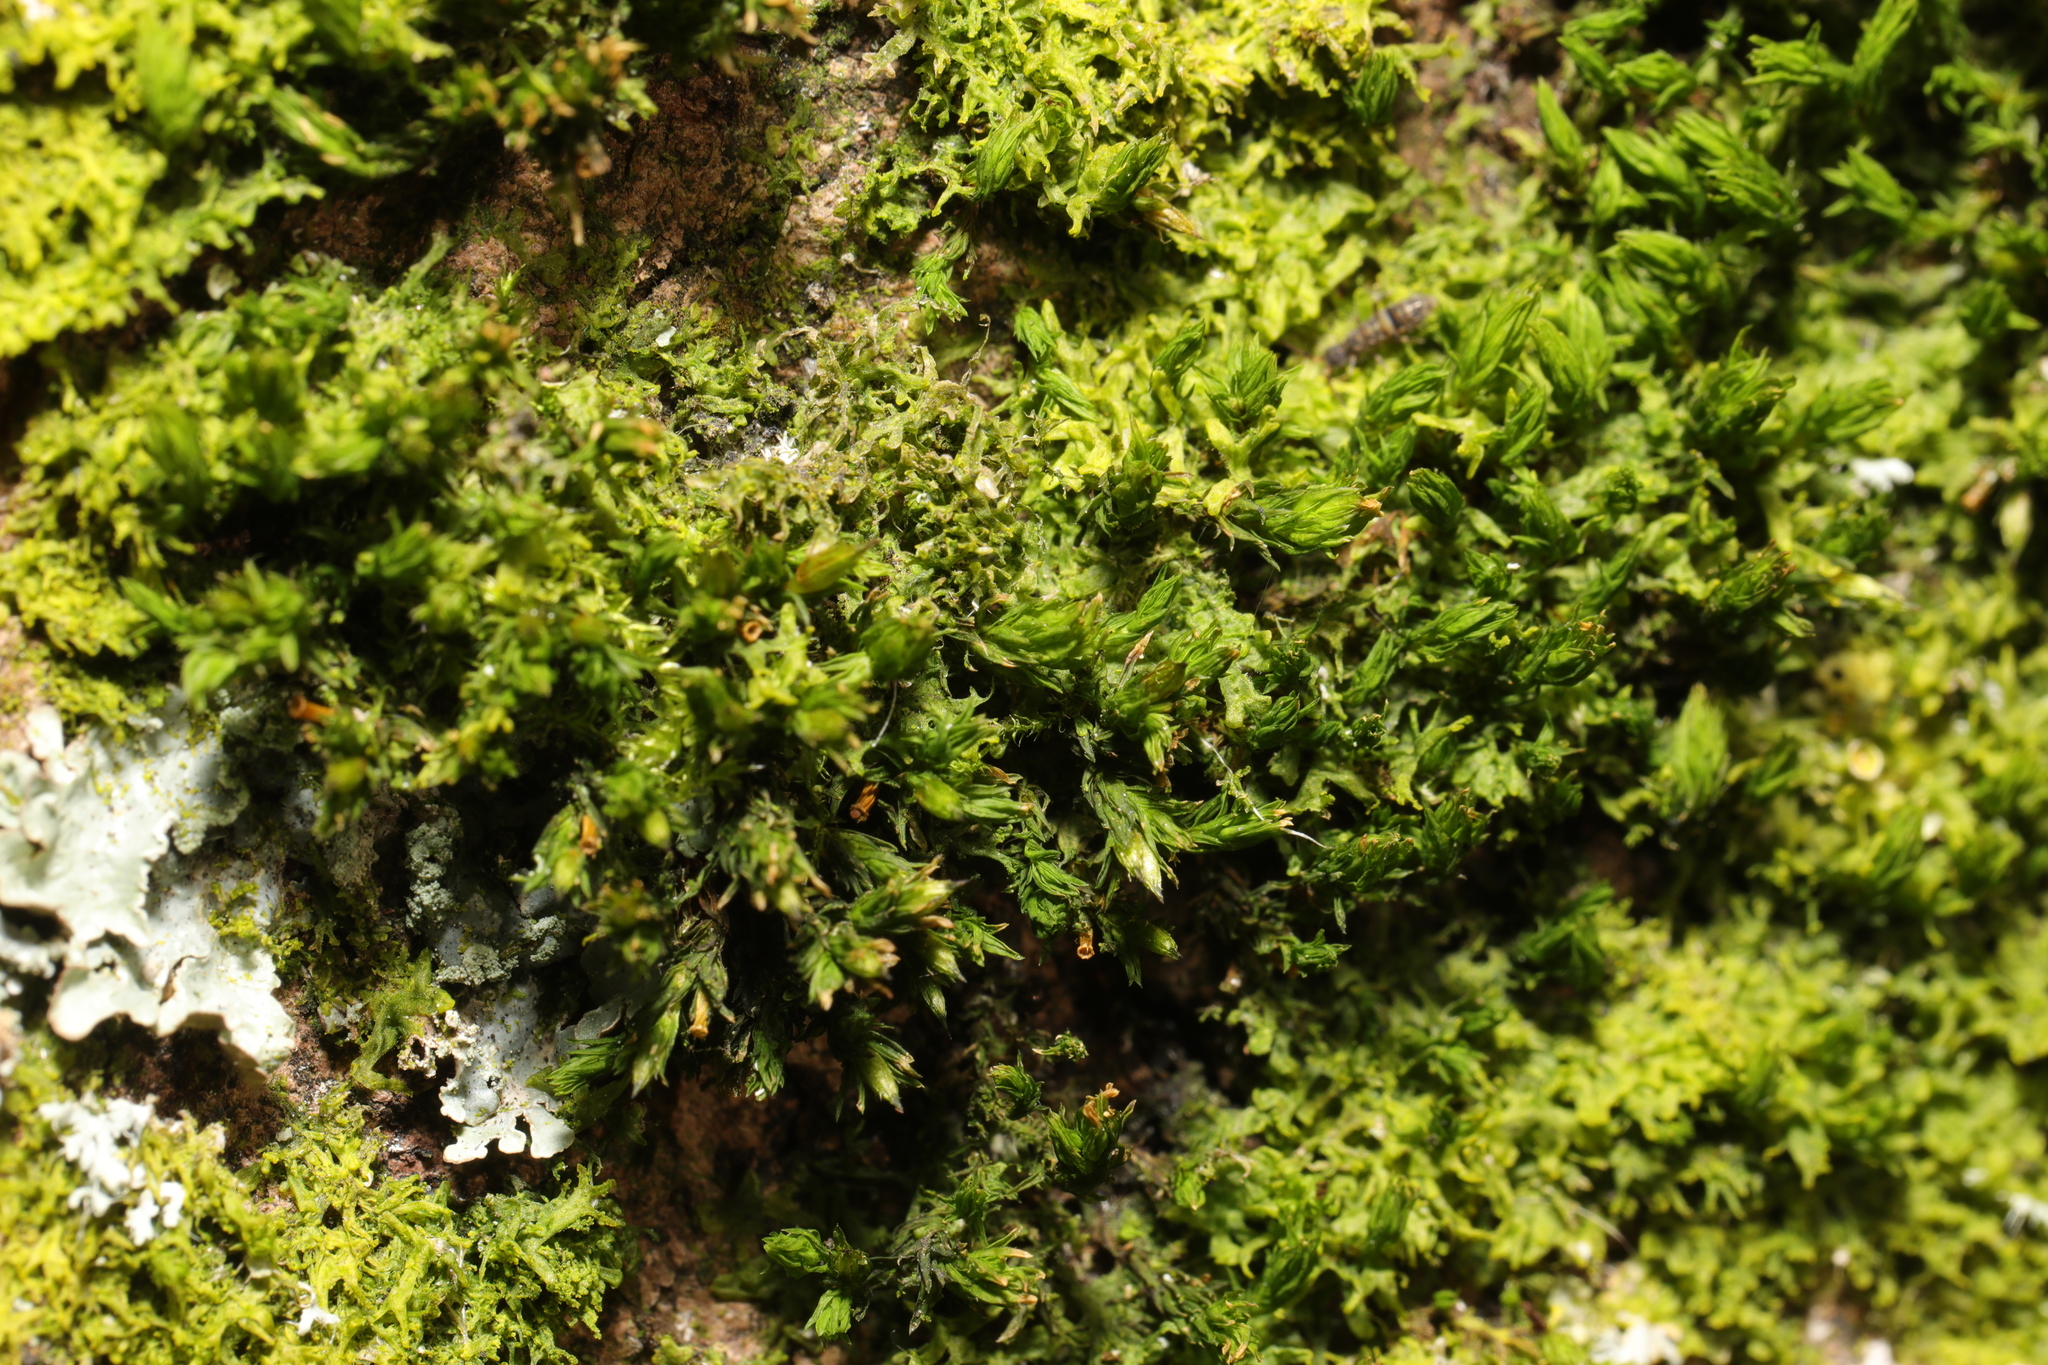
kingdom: Plantae
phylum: Bryophyta
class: Bryopsida
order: Orthotrichales
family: Orthotrichaceae
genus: Lewinskya
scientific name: Lewinskya affinis
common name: Wood bristle-moss
